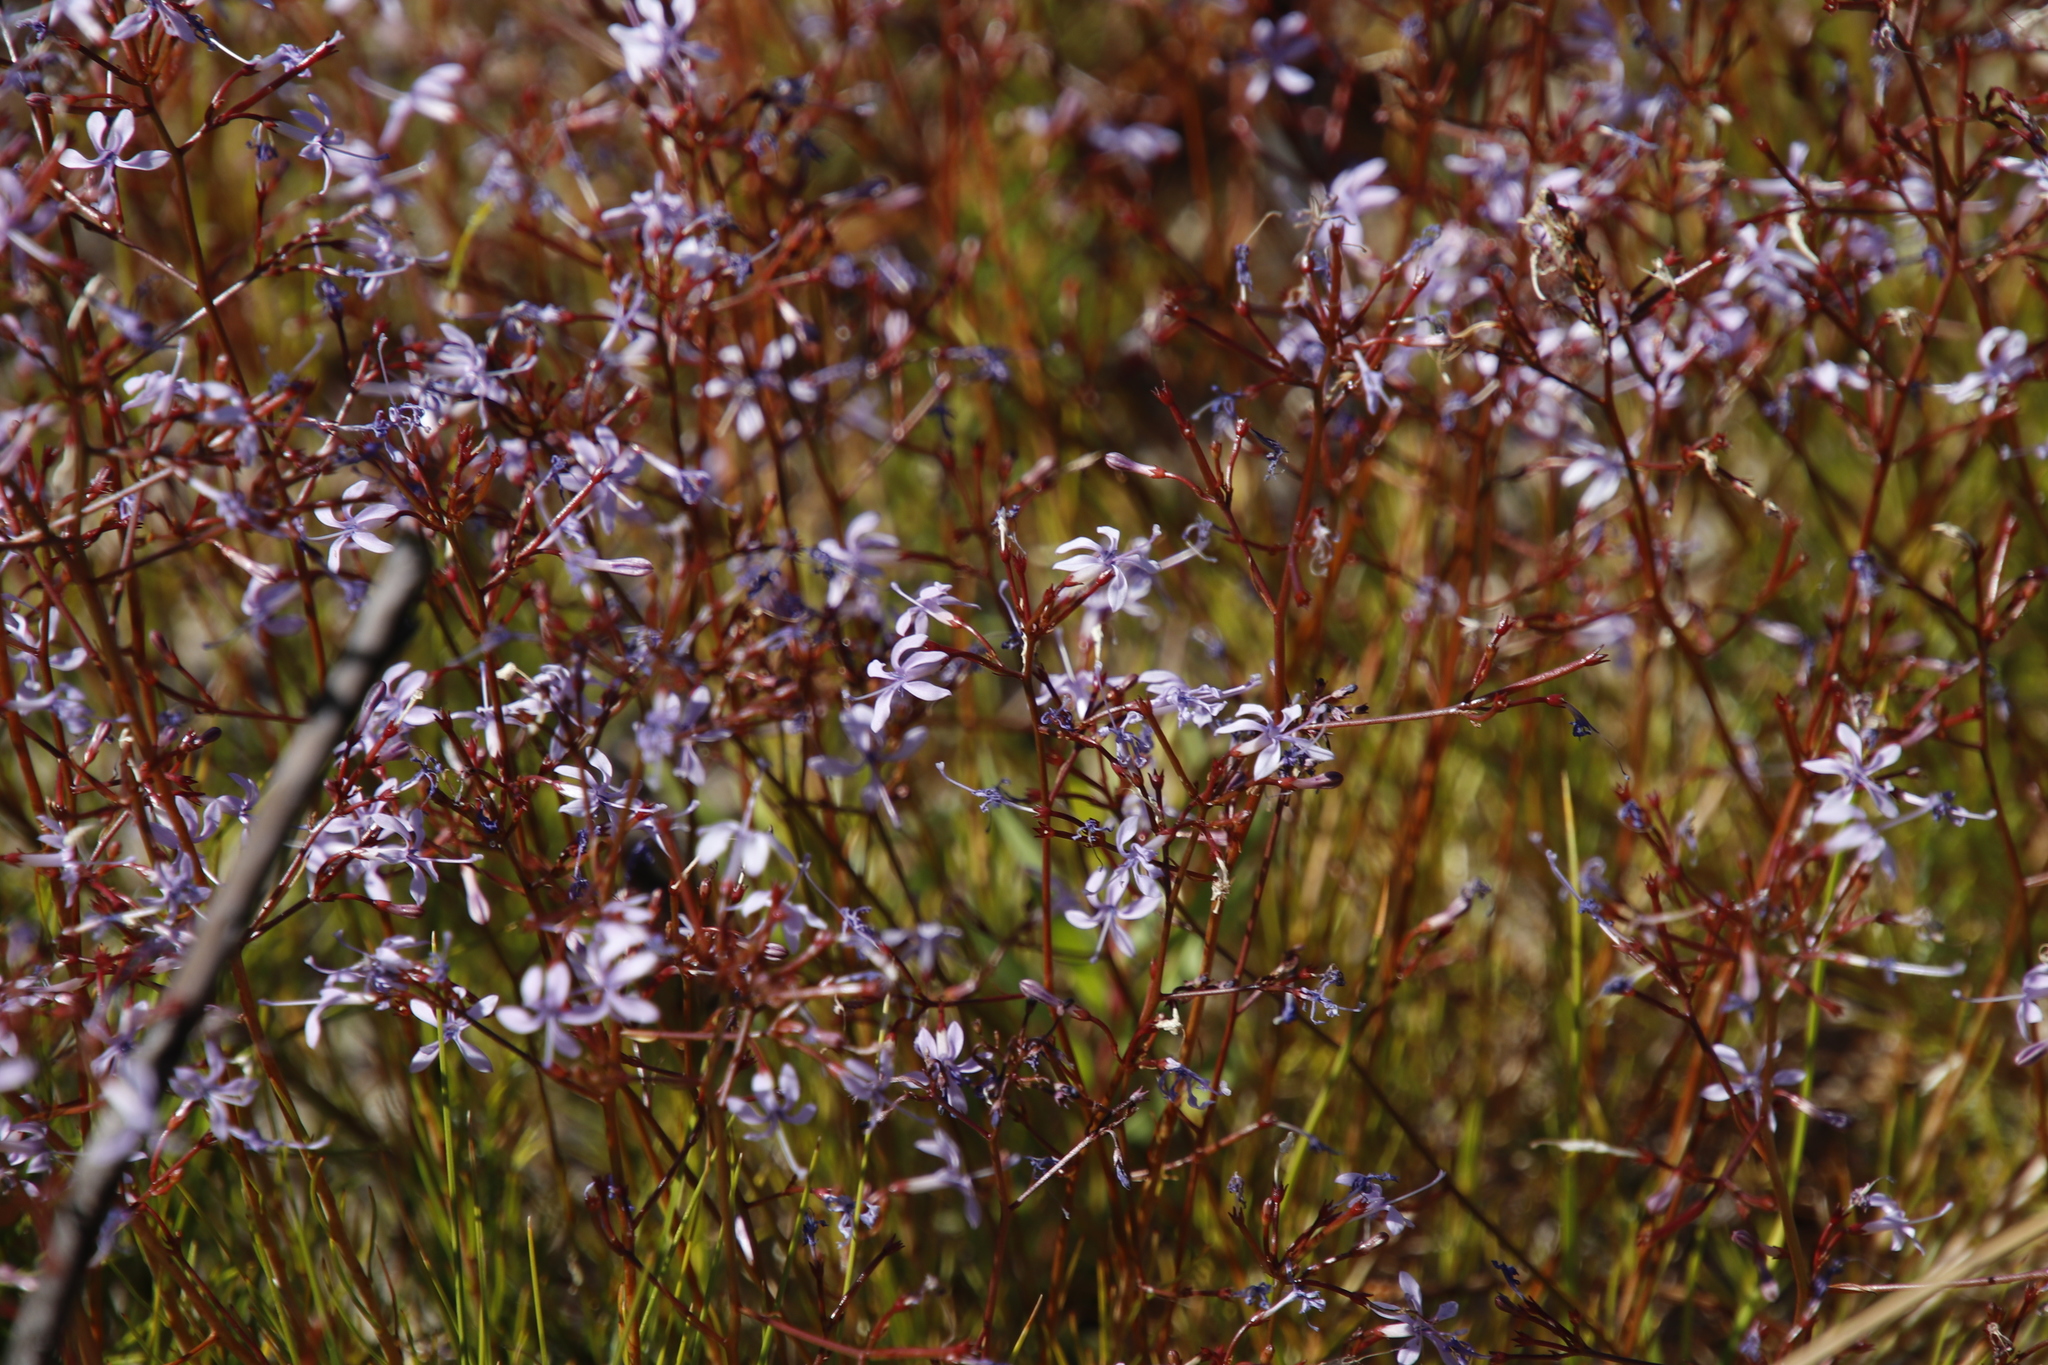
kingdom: Plantae
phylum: Tracheophyta
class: Magnoliopsida
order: Asterales
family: Campanulaceae
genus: Prismatocarpus
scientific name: Prismatocarpus diffusus
